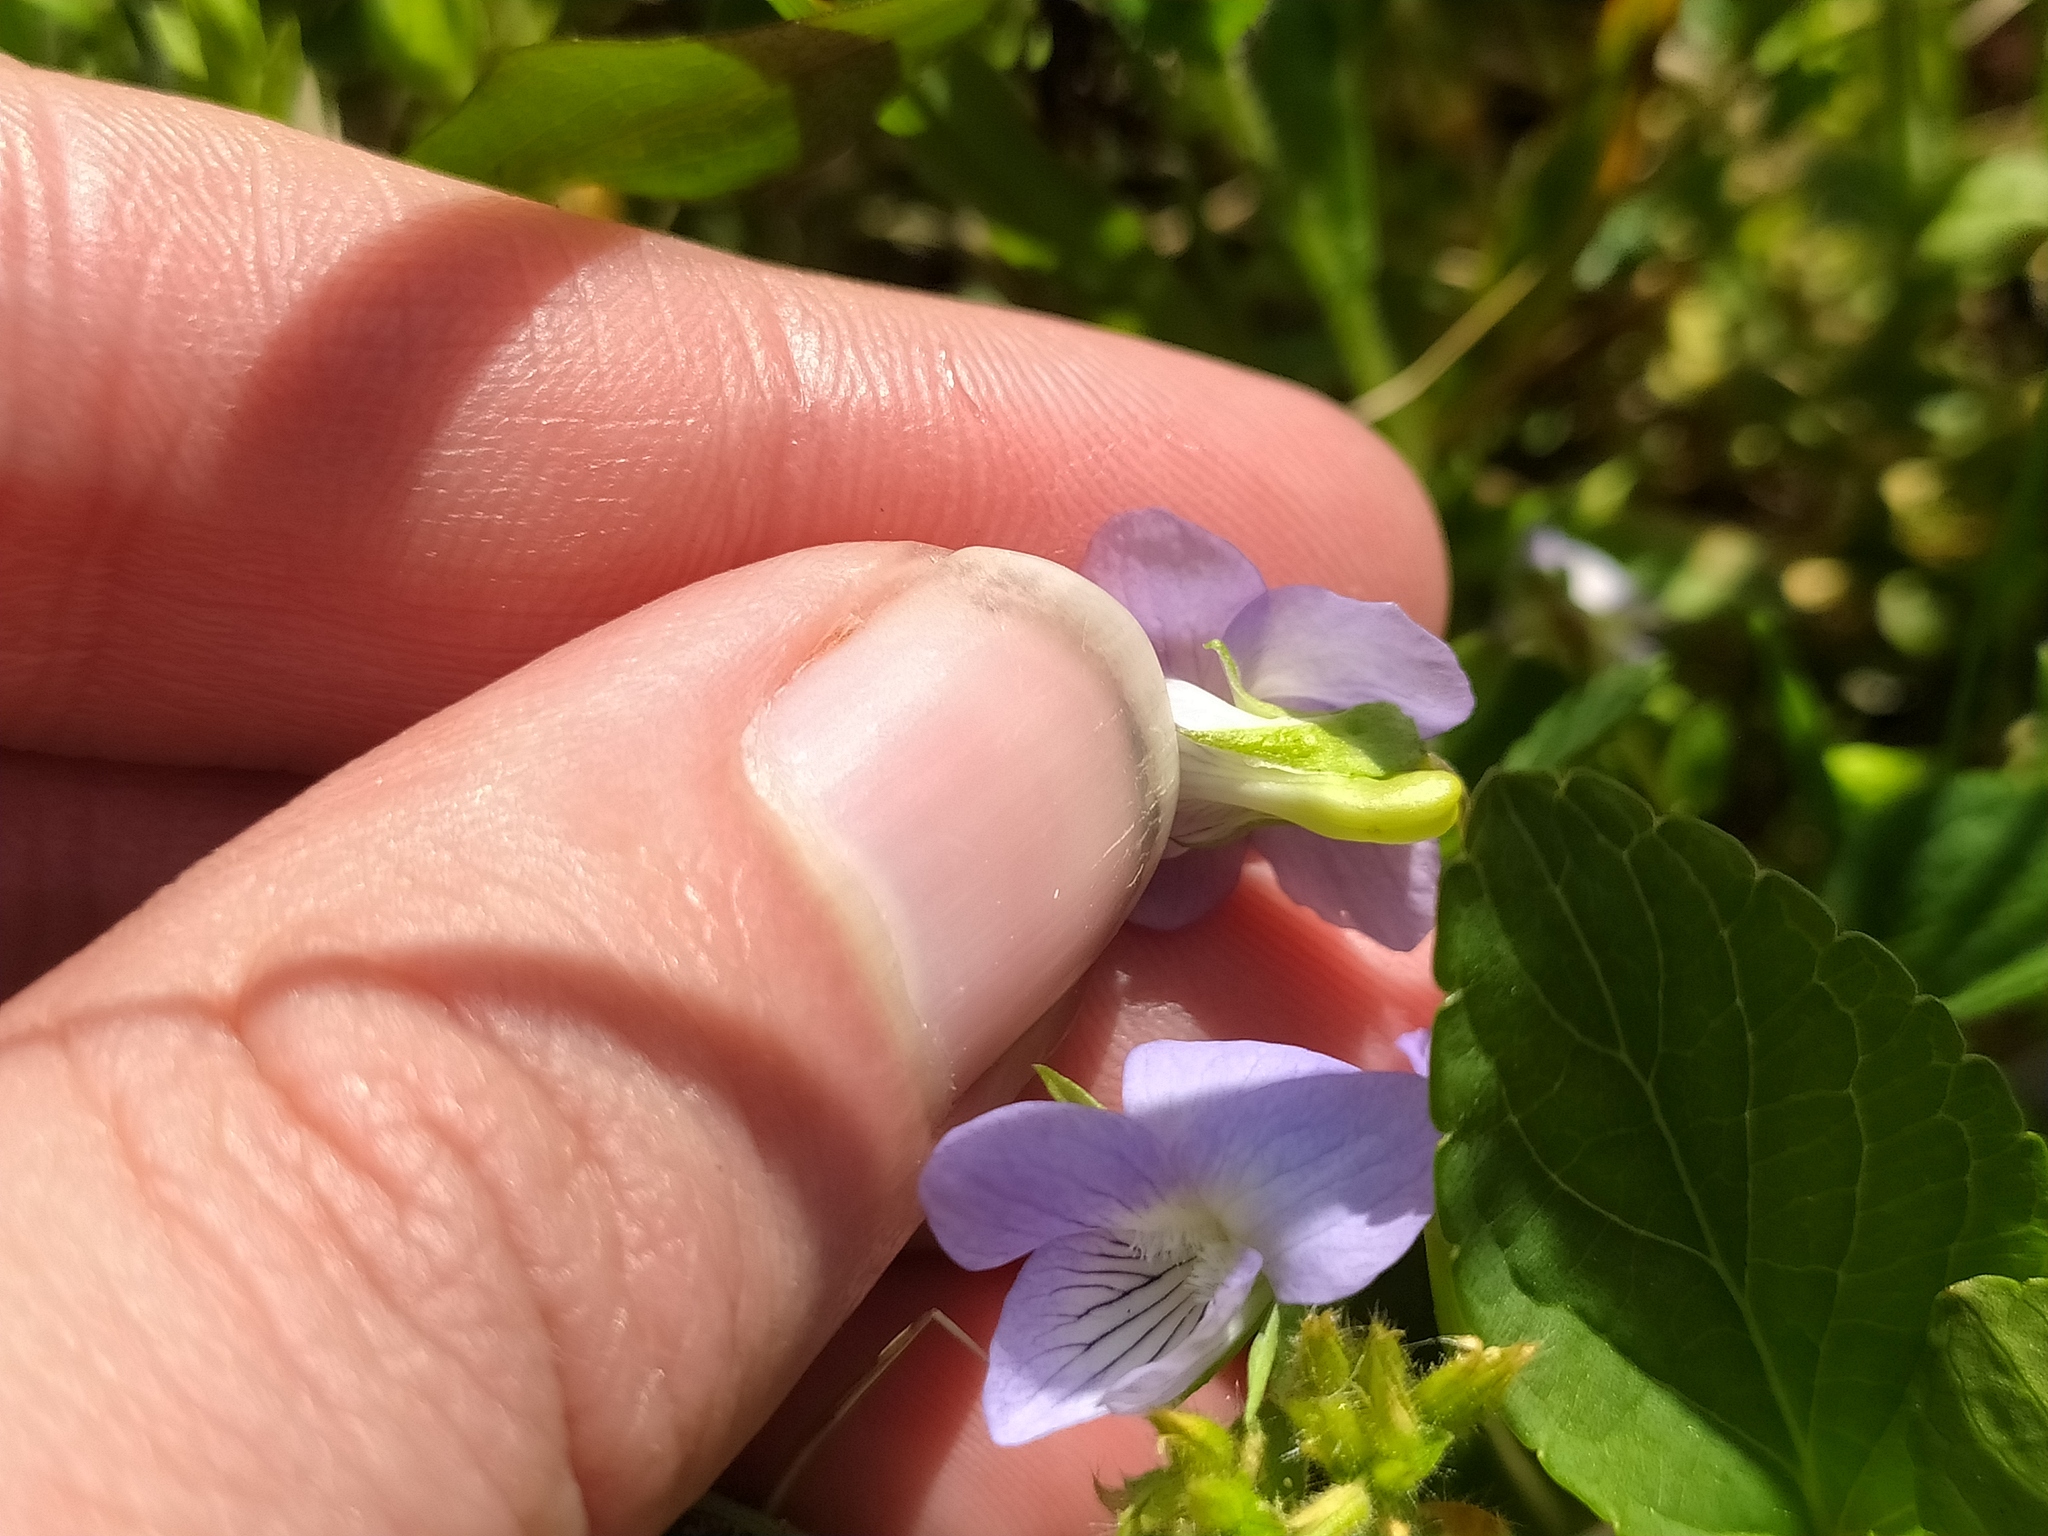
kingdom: Plantae
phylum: Tracheophyta
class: Magnoliopsida
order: Malpighiales
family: Violaceae
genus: Viola
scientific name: Viola stagnina
